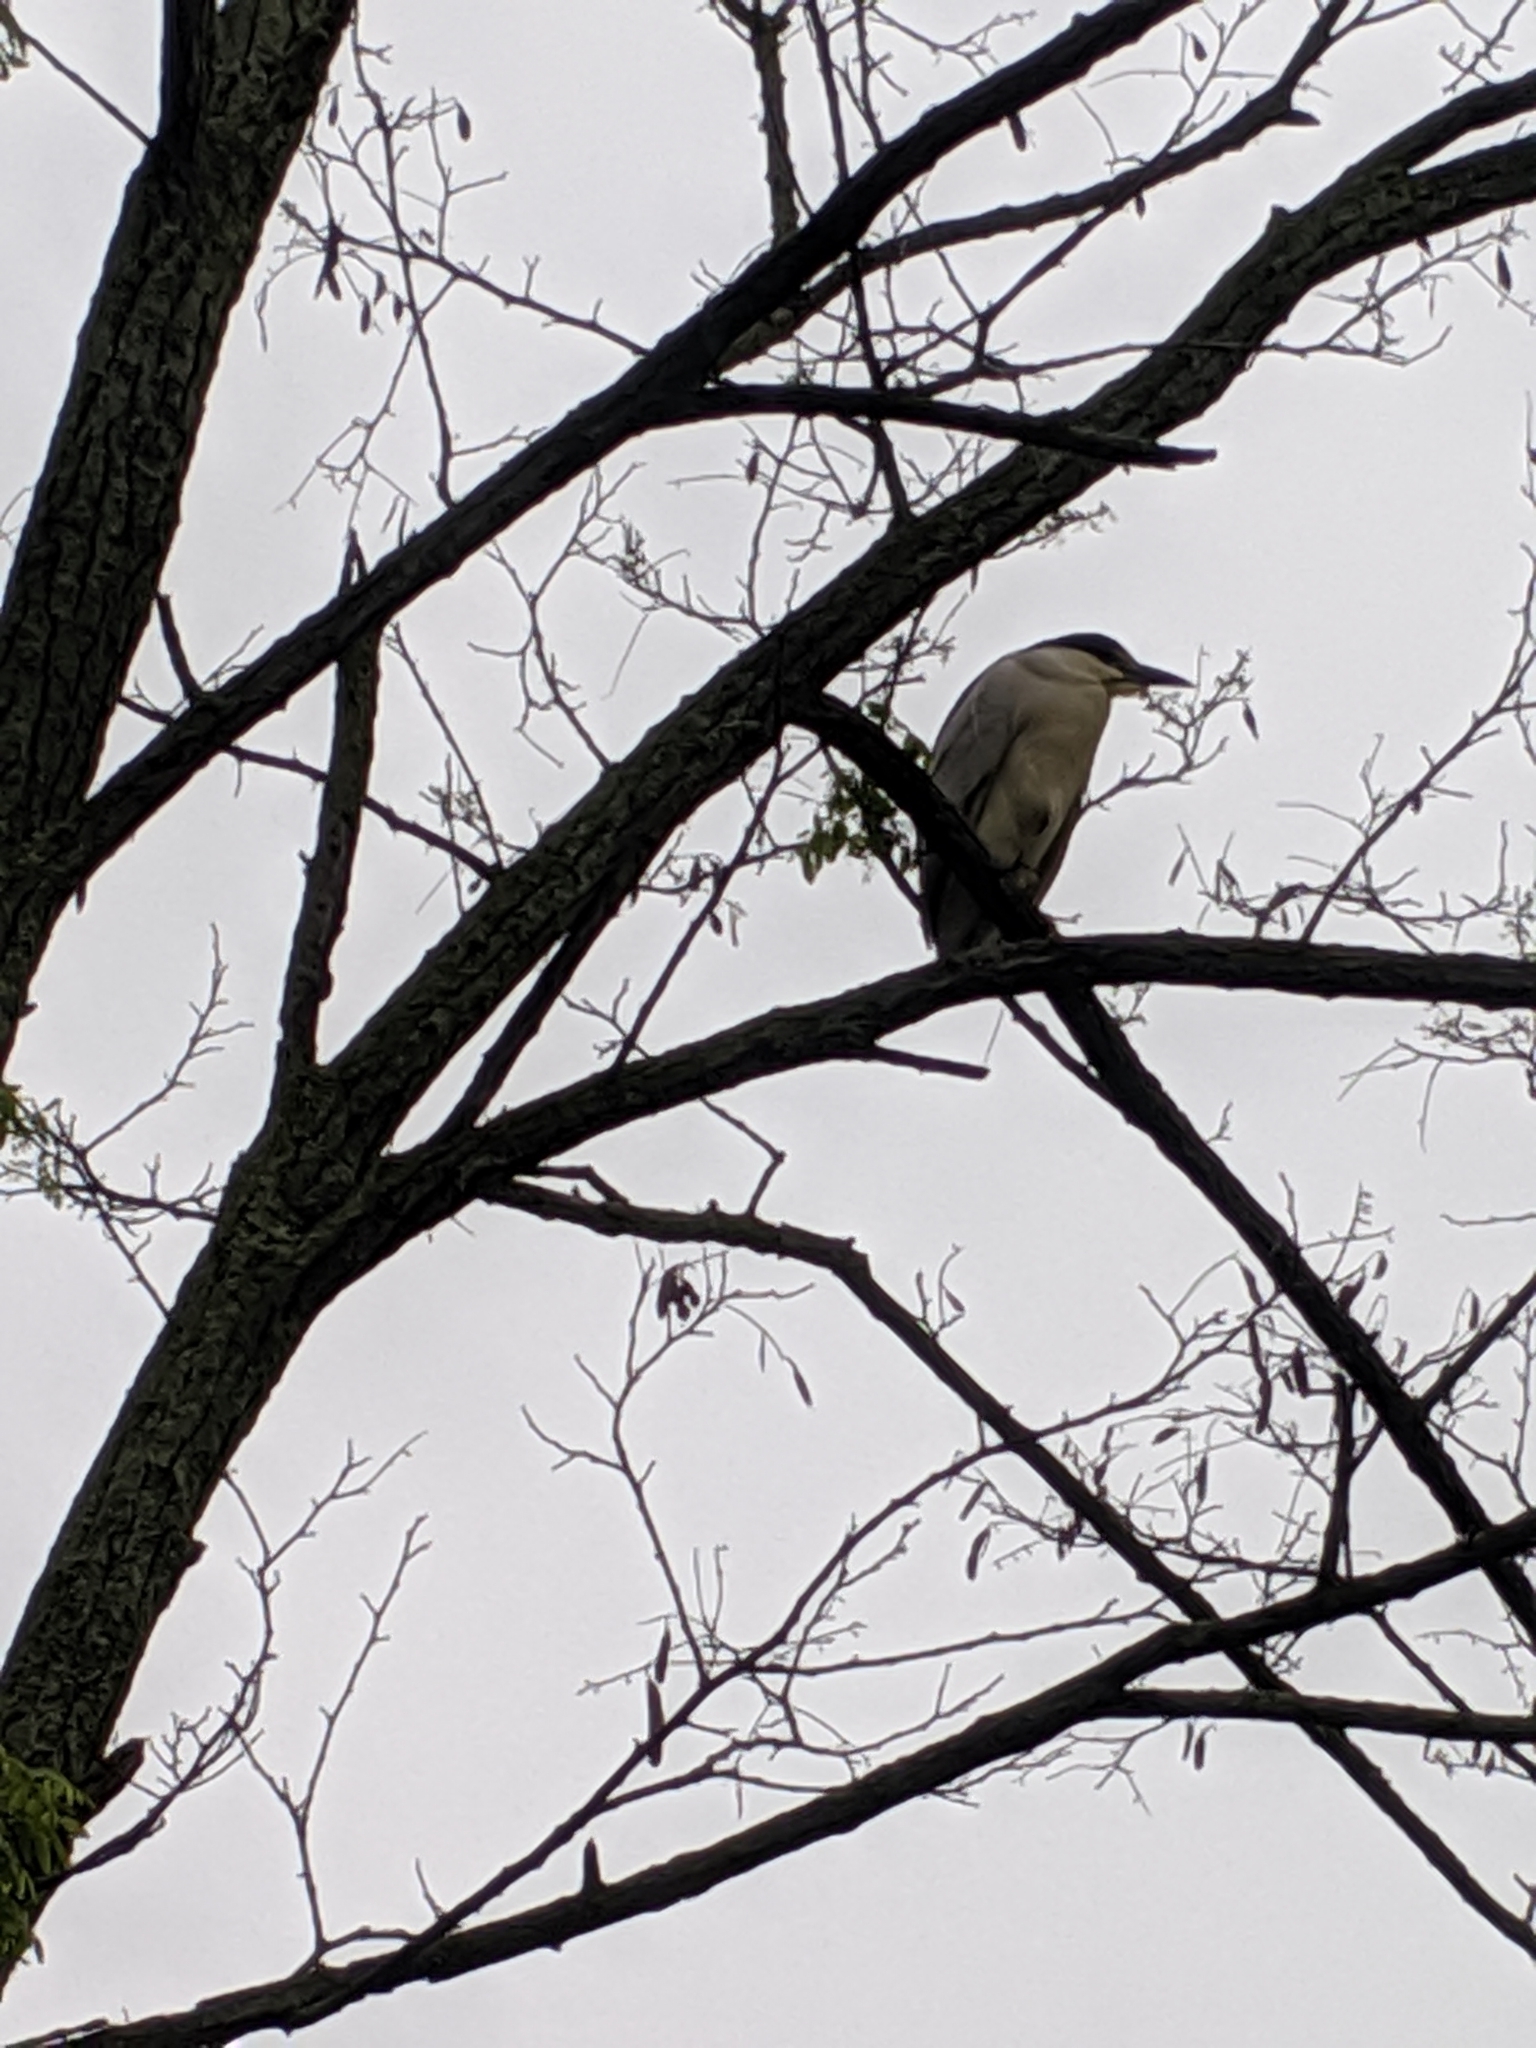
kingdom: Animalia
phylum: Chordata
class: Aves
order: Pelecaniformes
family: Ardeidae
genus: Nycticorax
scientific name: Nycticorax nycticorax
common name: Black-crowned night heron
